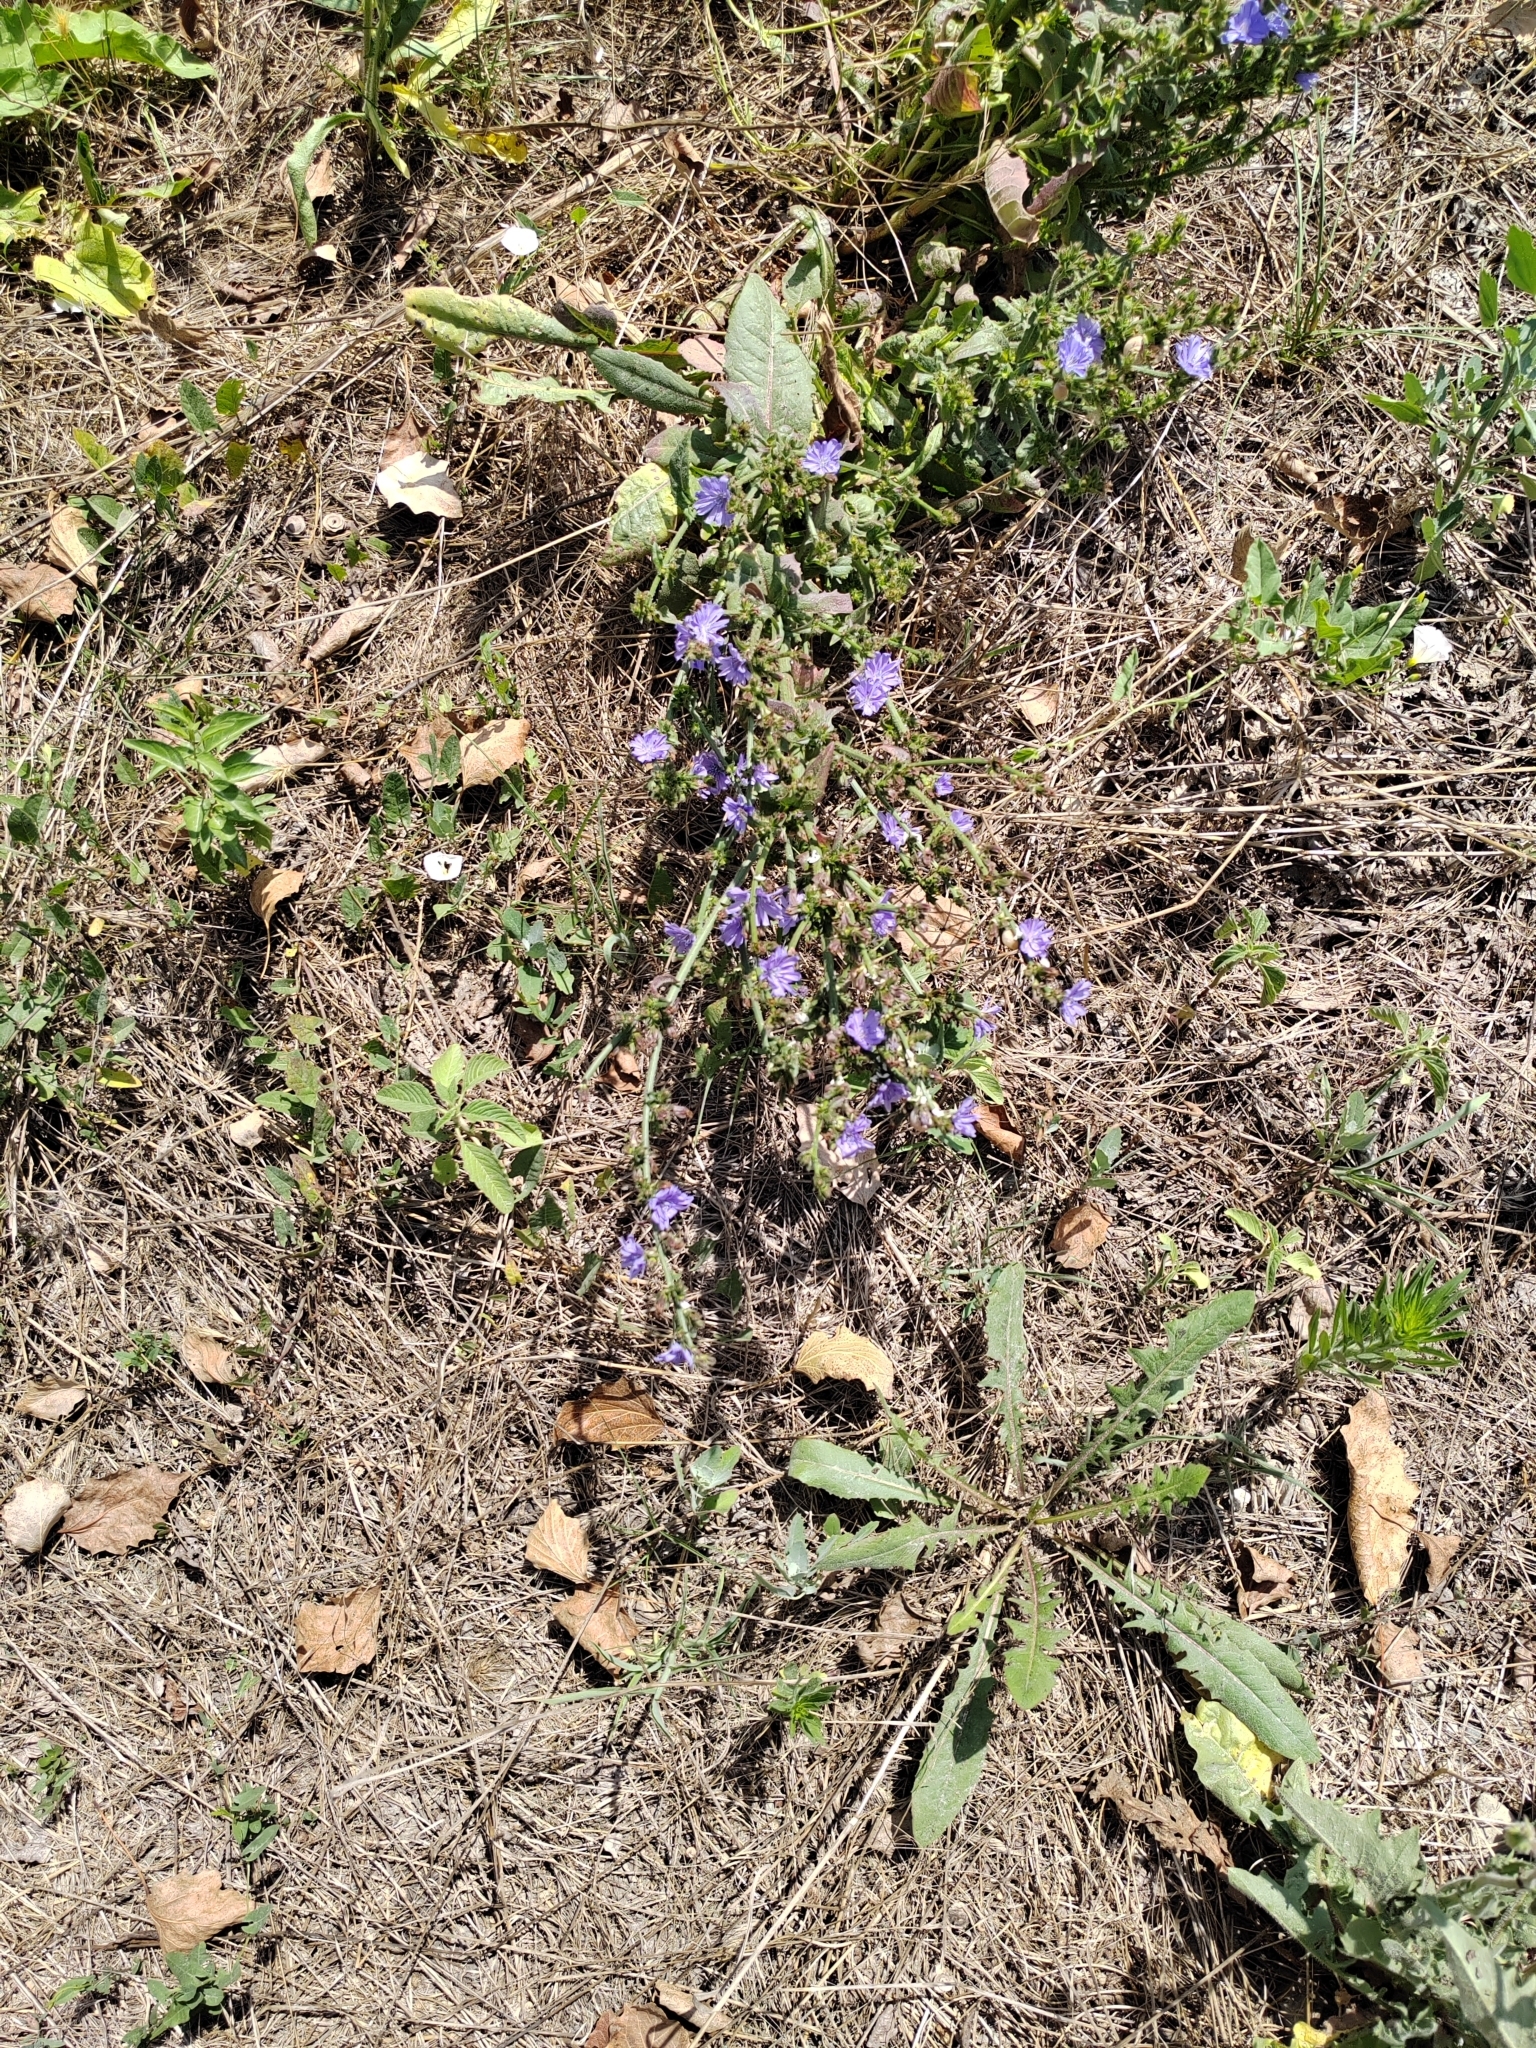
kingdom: Plantae
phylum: Tracheophyta
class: Magnoliopsida
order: Asterales
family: Asteraceae
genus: Cichorium
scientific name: Cichorium intybus
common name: Chicory
